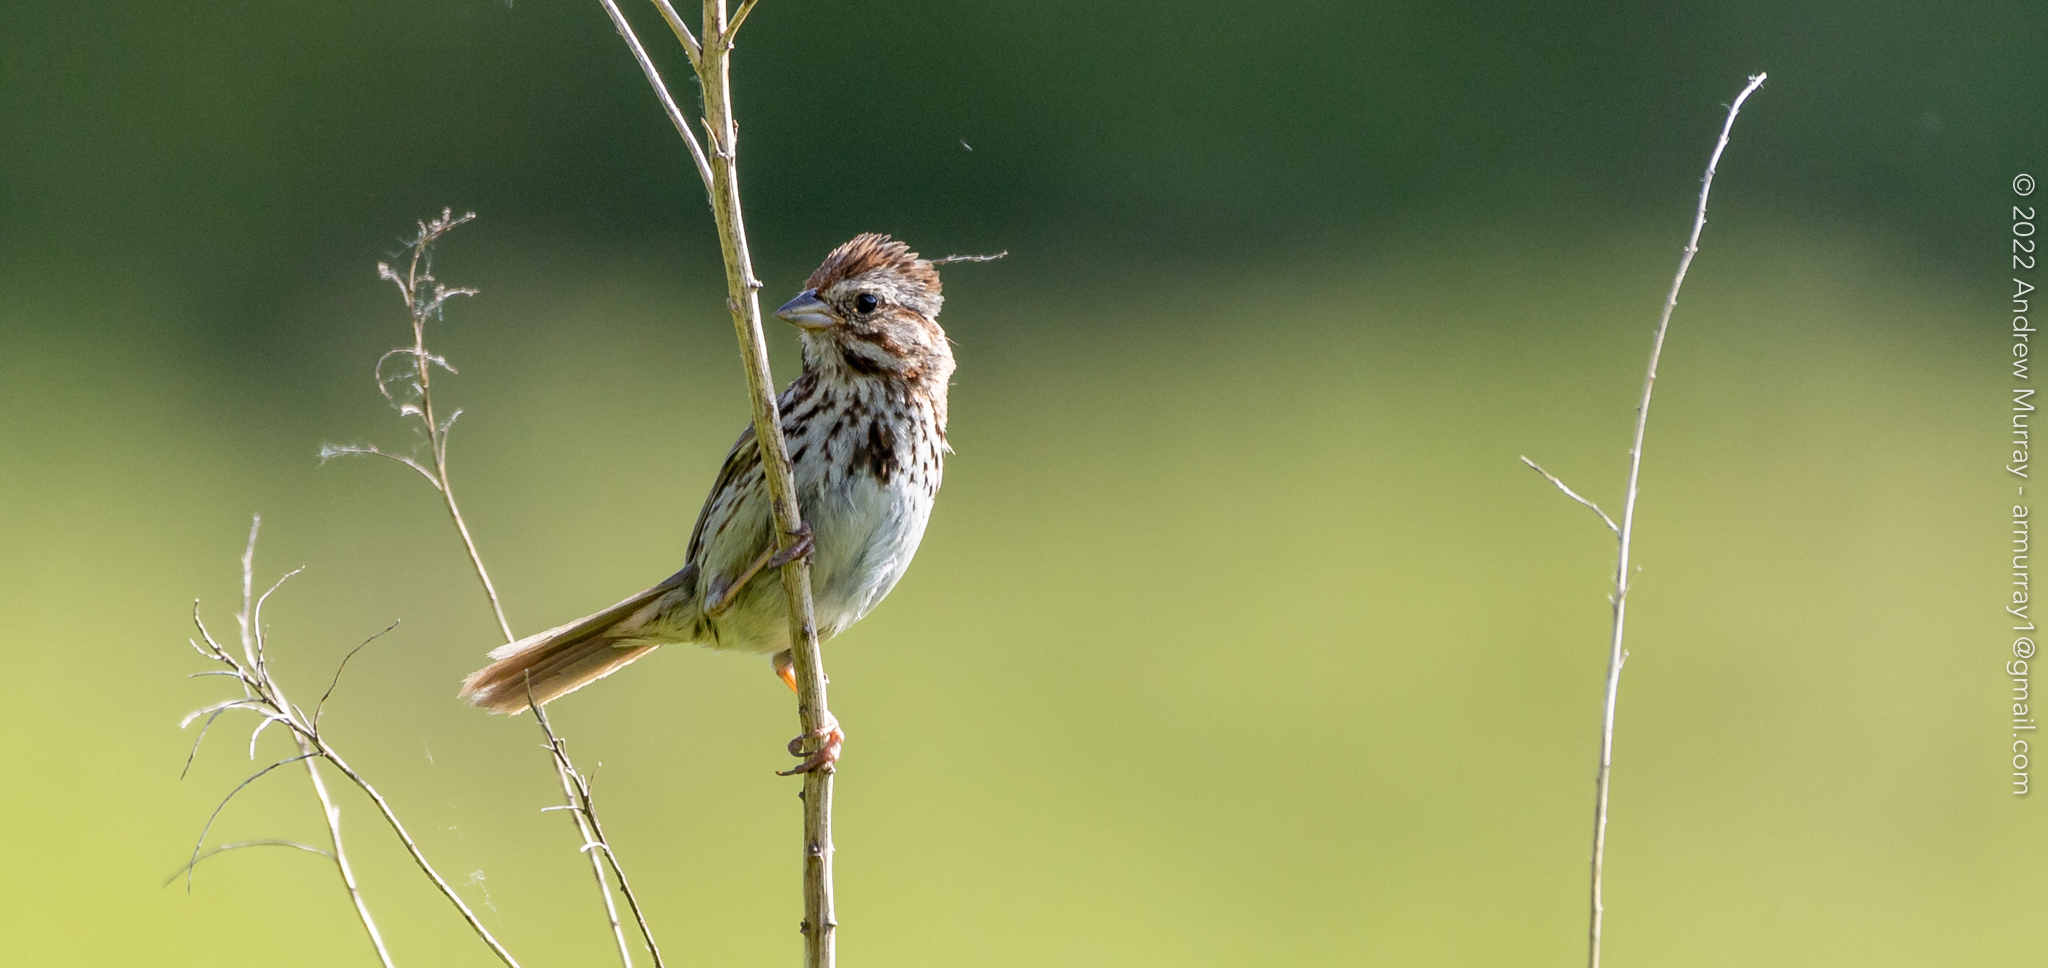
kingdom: Animalia
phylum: Chordata
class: Aves
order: Passeriformes
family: Passerellidae
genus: Melospiza
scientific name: Melospiza melodia
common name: Song sparrow
